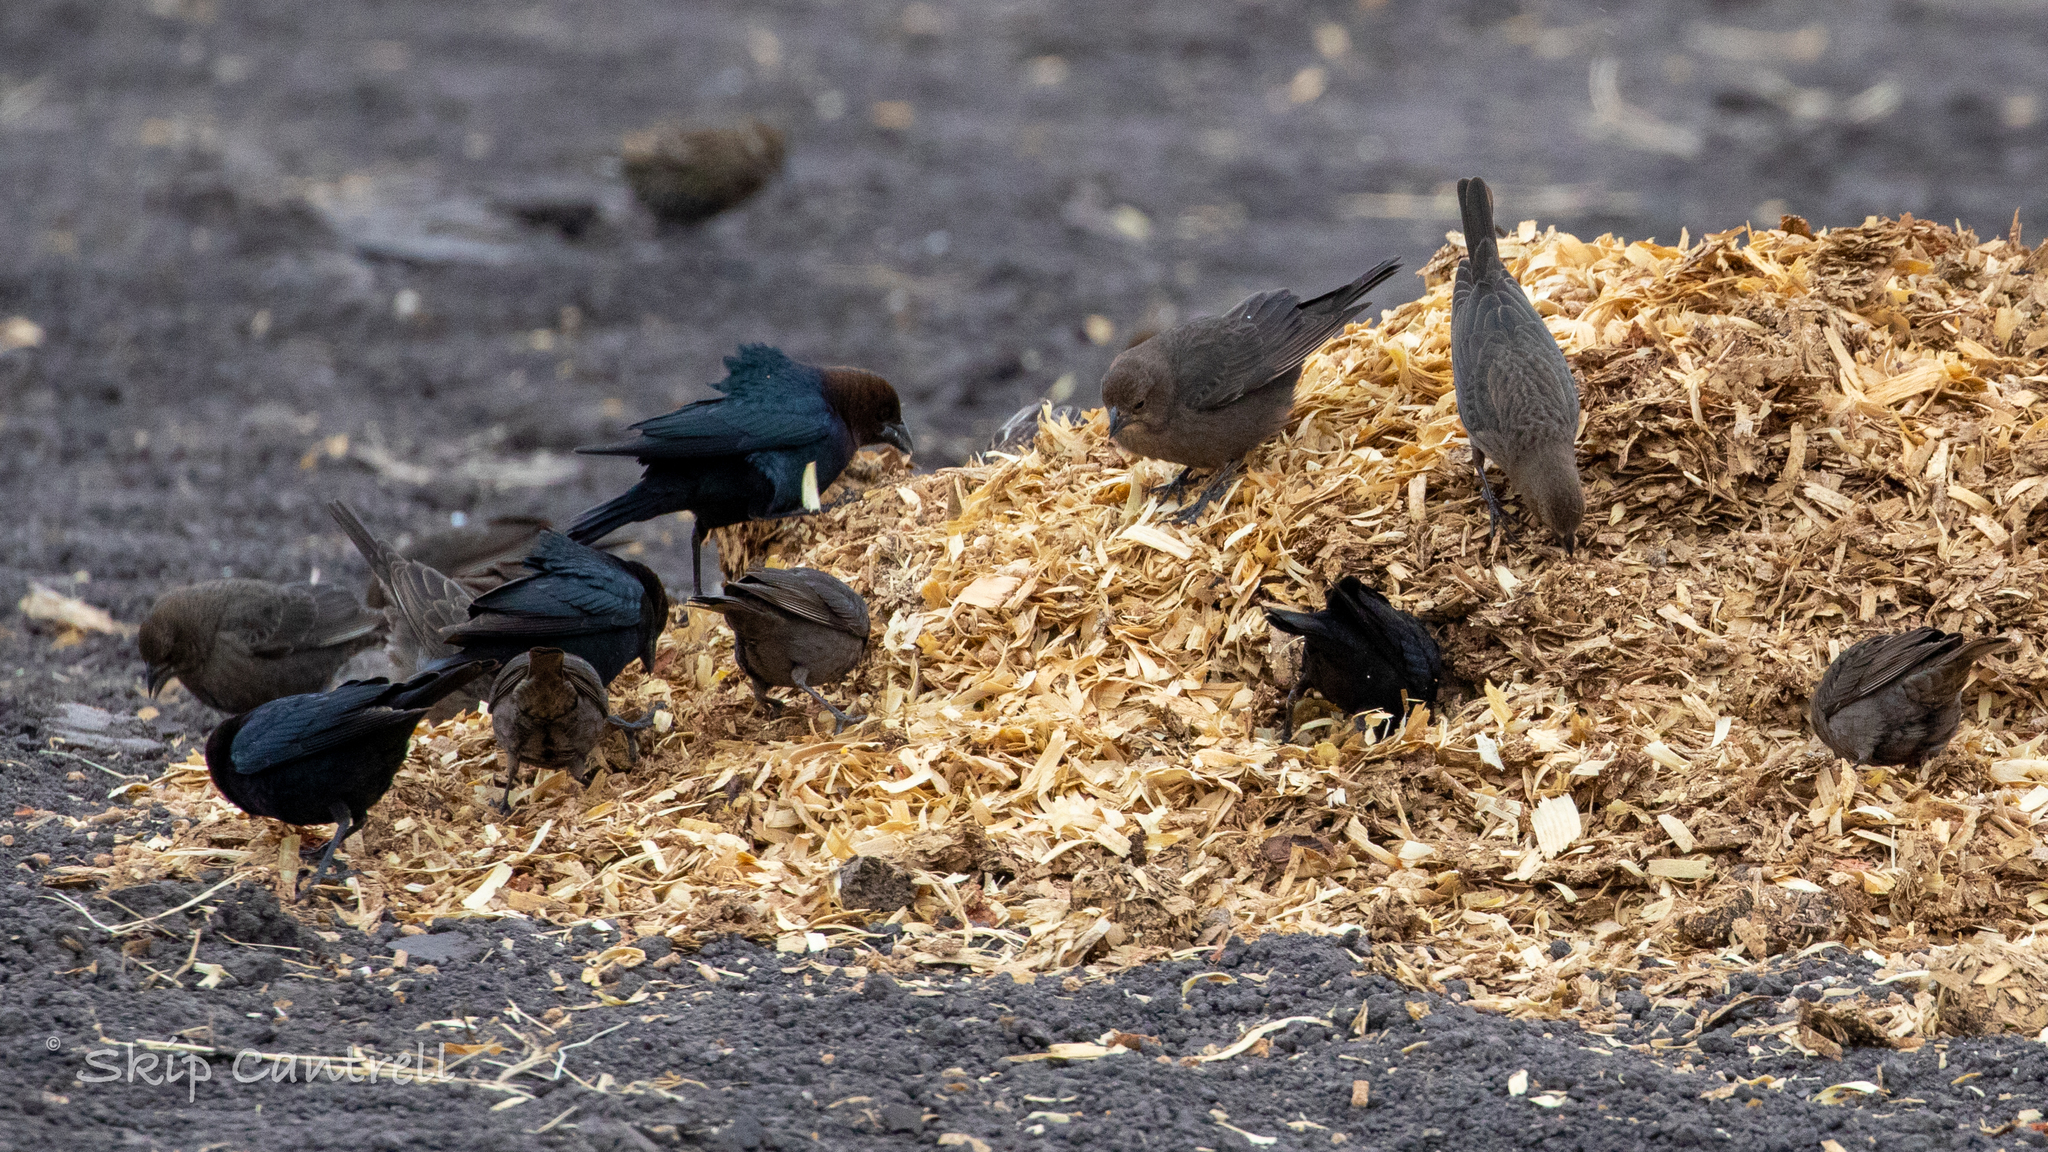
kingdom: Animalia
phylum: Chordata
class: Aves
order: Passeriformes
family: Icteridae
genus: Molothrus
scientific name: Molothrus ater
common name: Brown-headed cowbird
